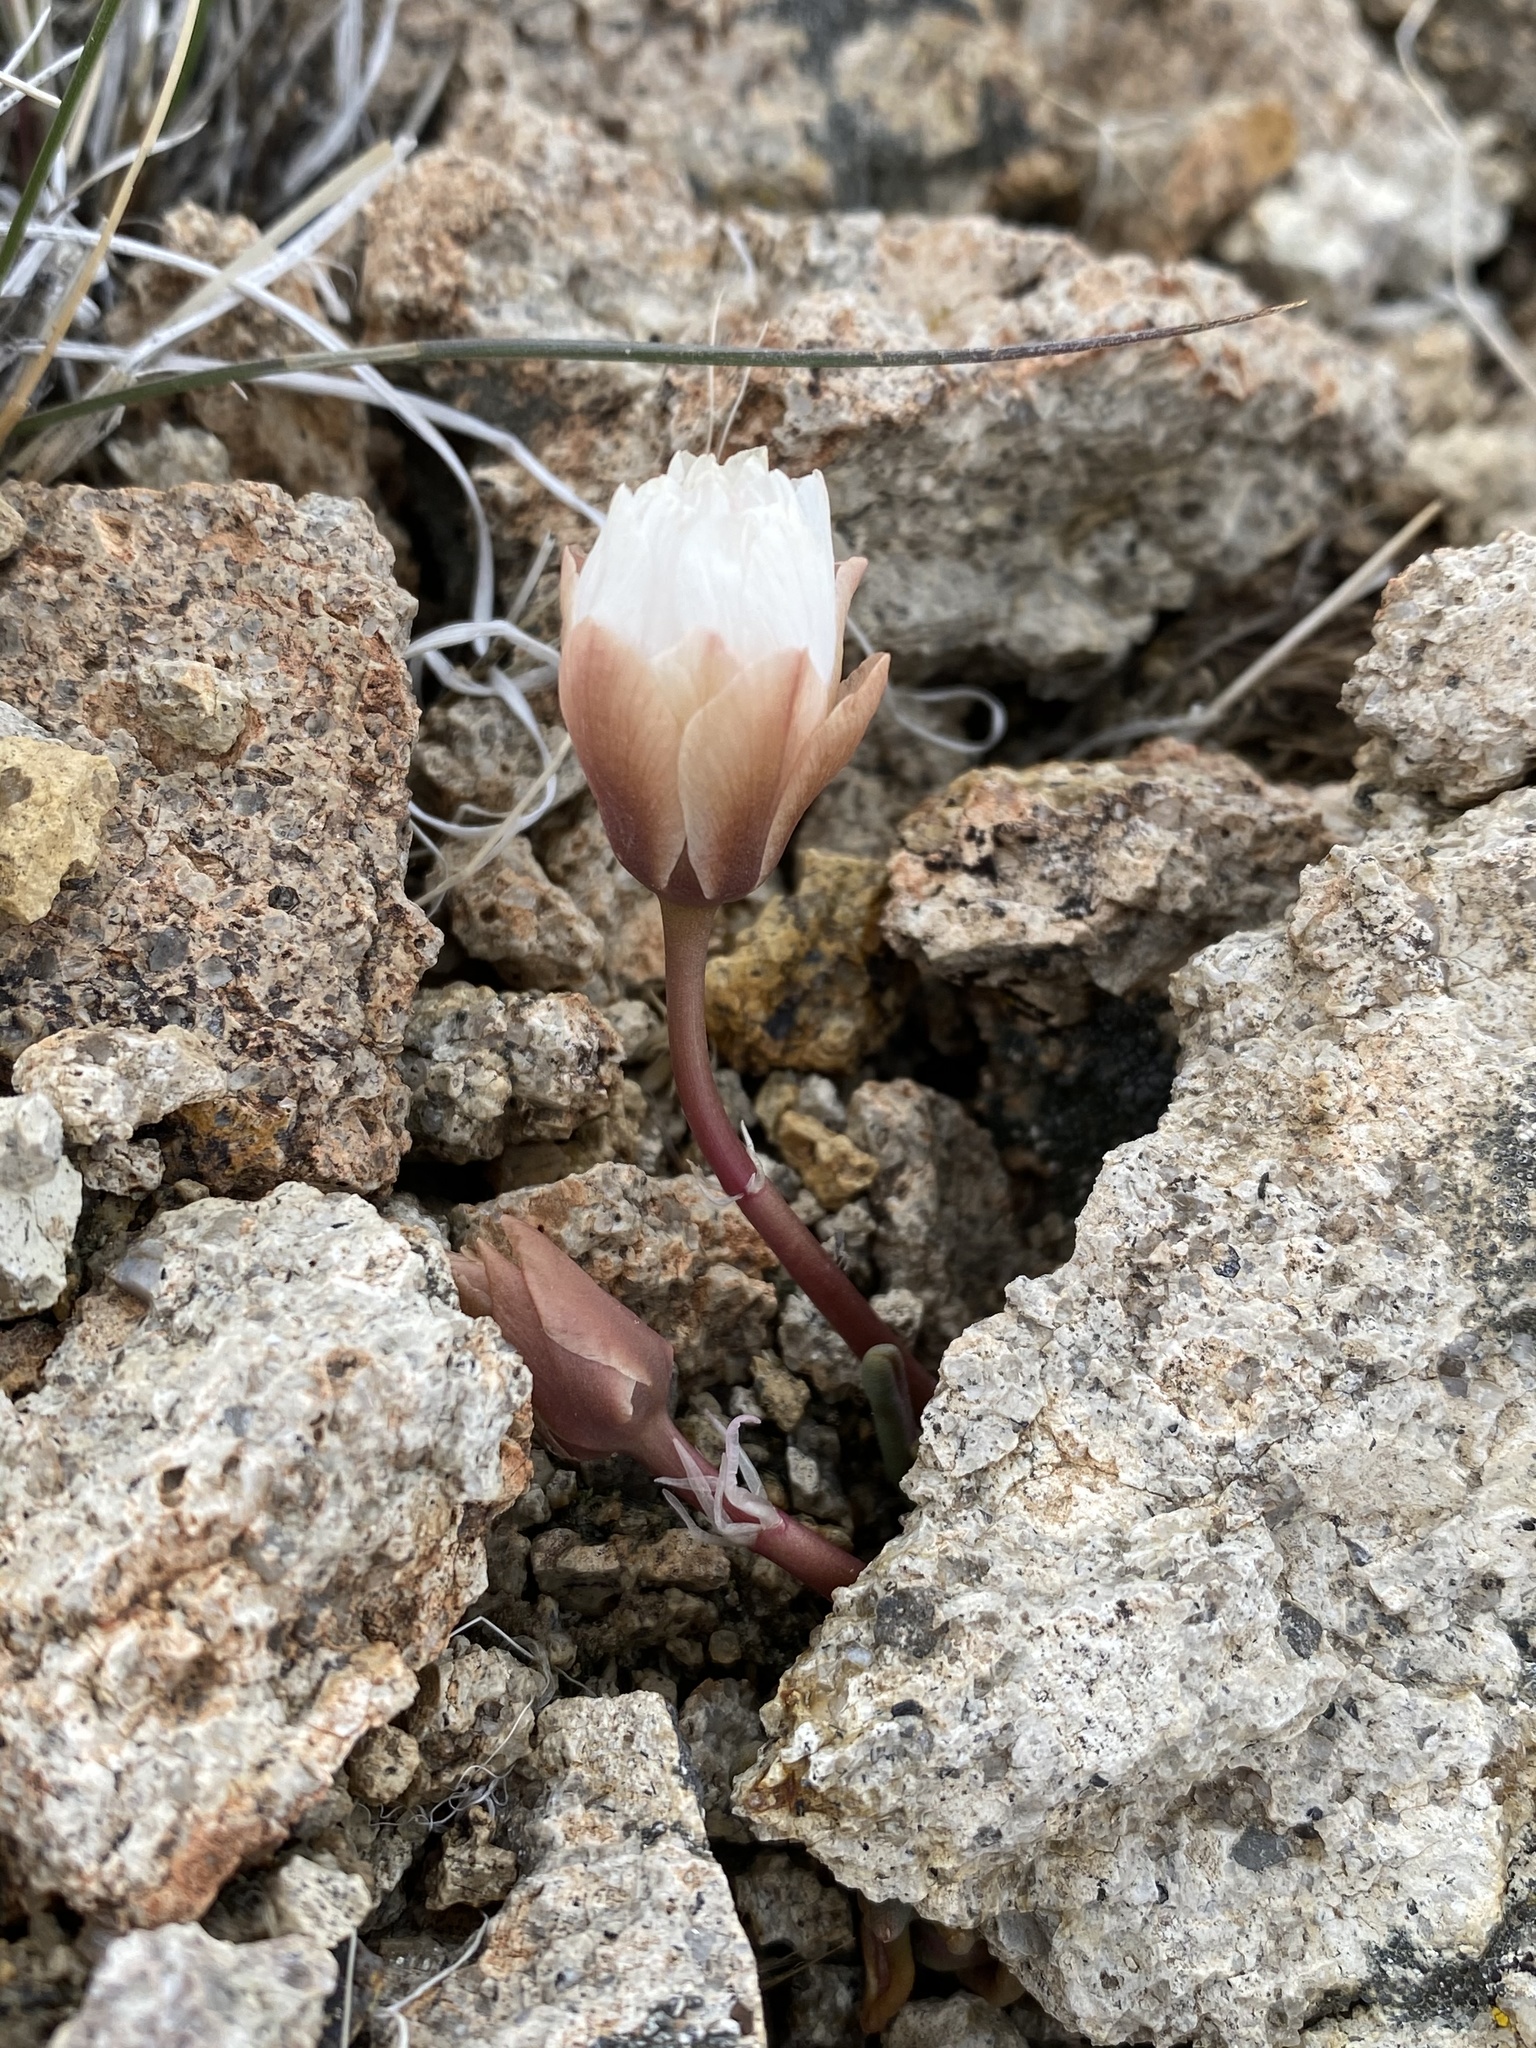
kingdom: Plantae
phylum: Tracheophyta
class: Magnoliopsida
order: Caryophyllales
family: Montiaceae
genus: Lewisia
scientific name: Lewisia rediviva
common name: Bitter-root
